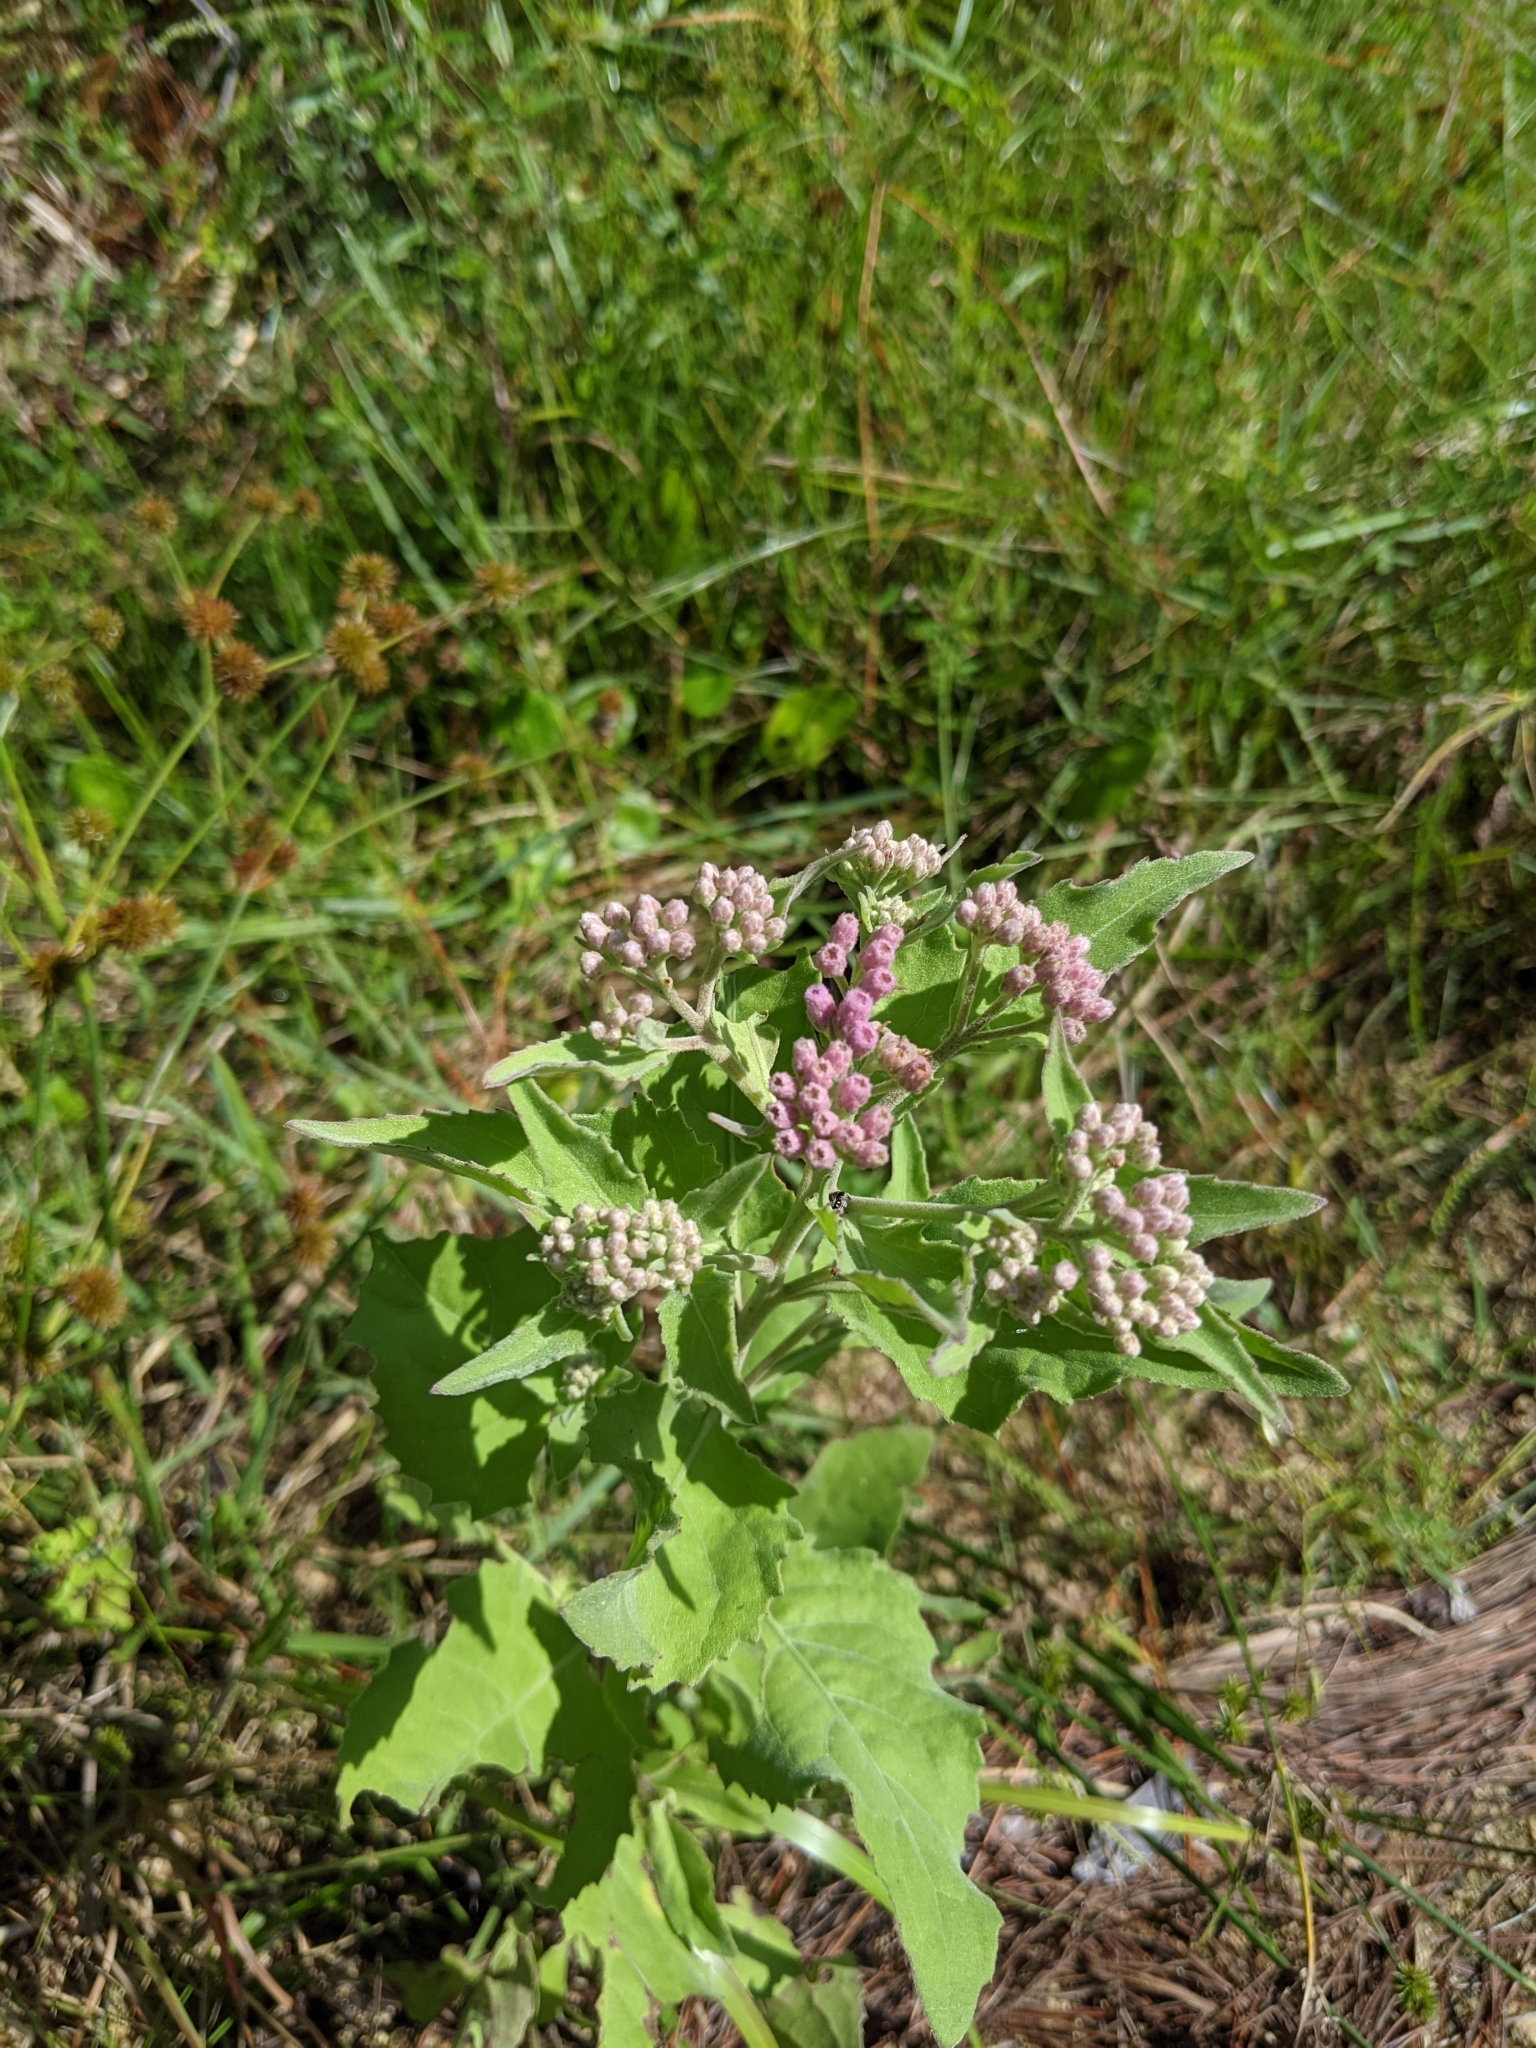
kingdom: Plantae
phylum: Tracheophyta
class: Magnoliopsida
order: Asterales
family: Asteraceae
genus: Pluchea
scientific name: Pluchea odorata
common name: Saltmarsh fleabane
